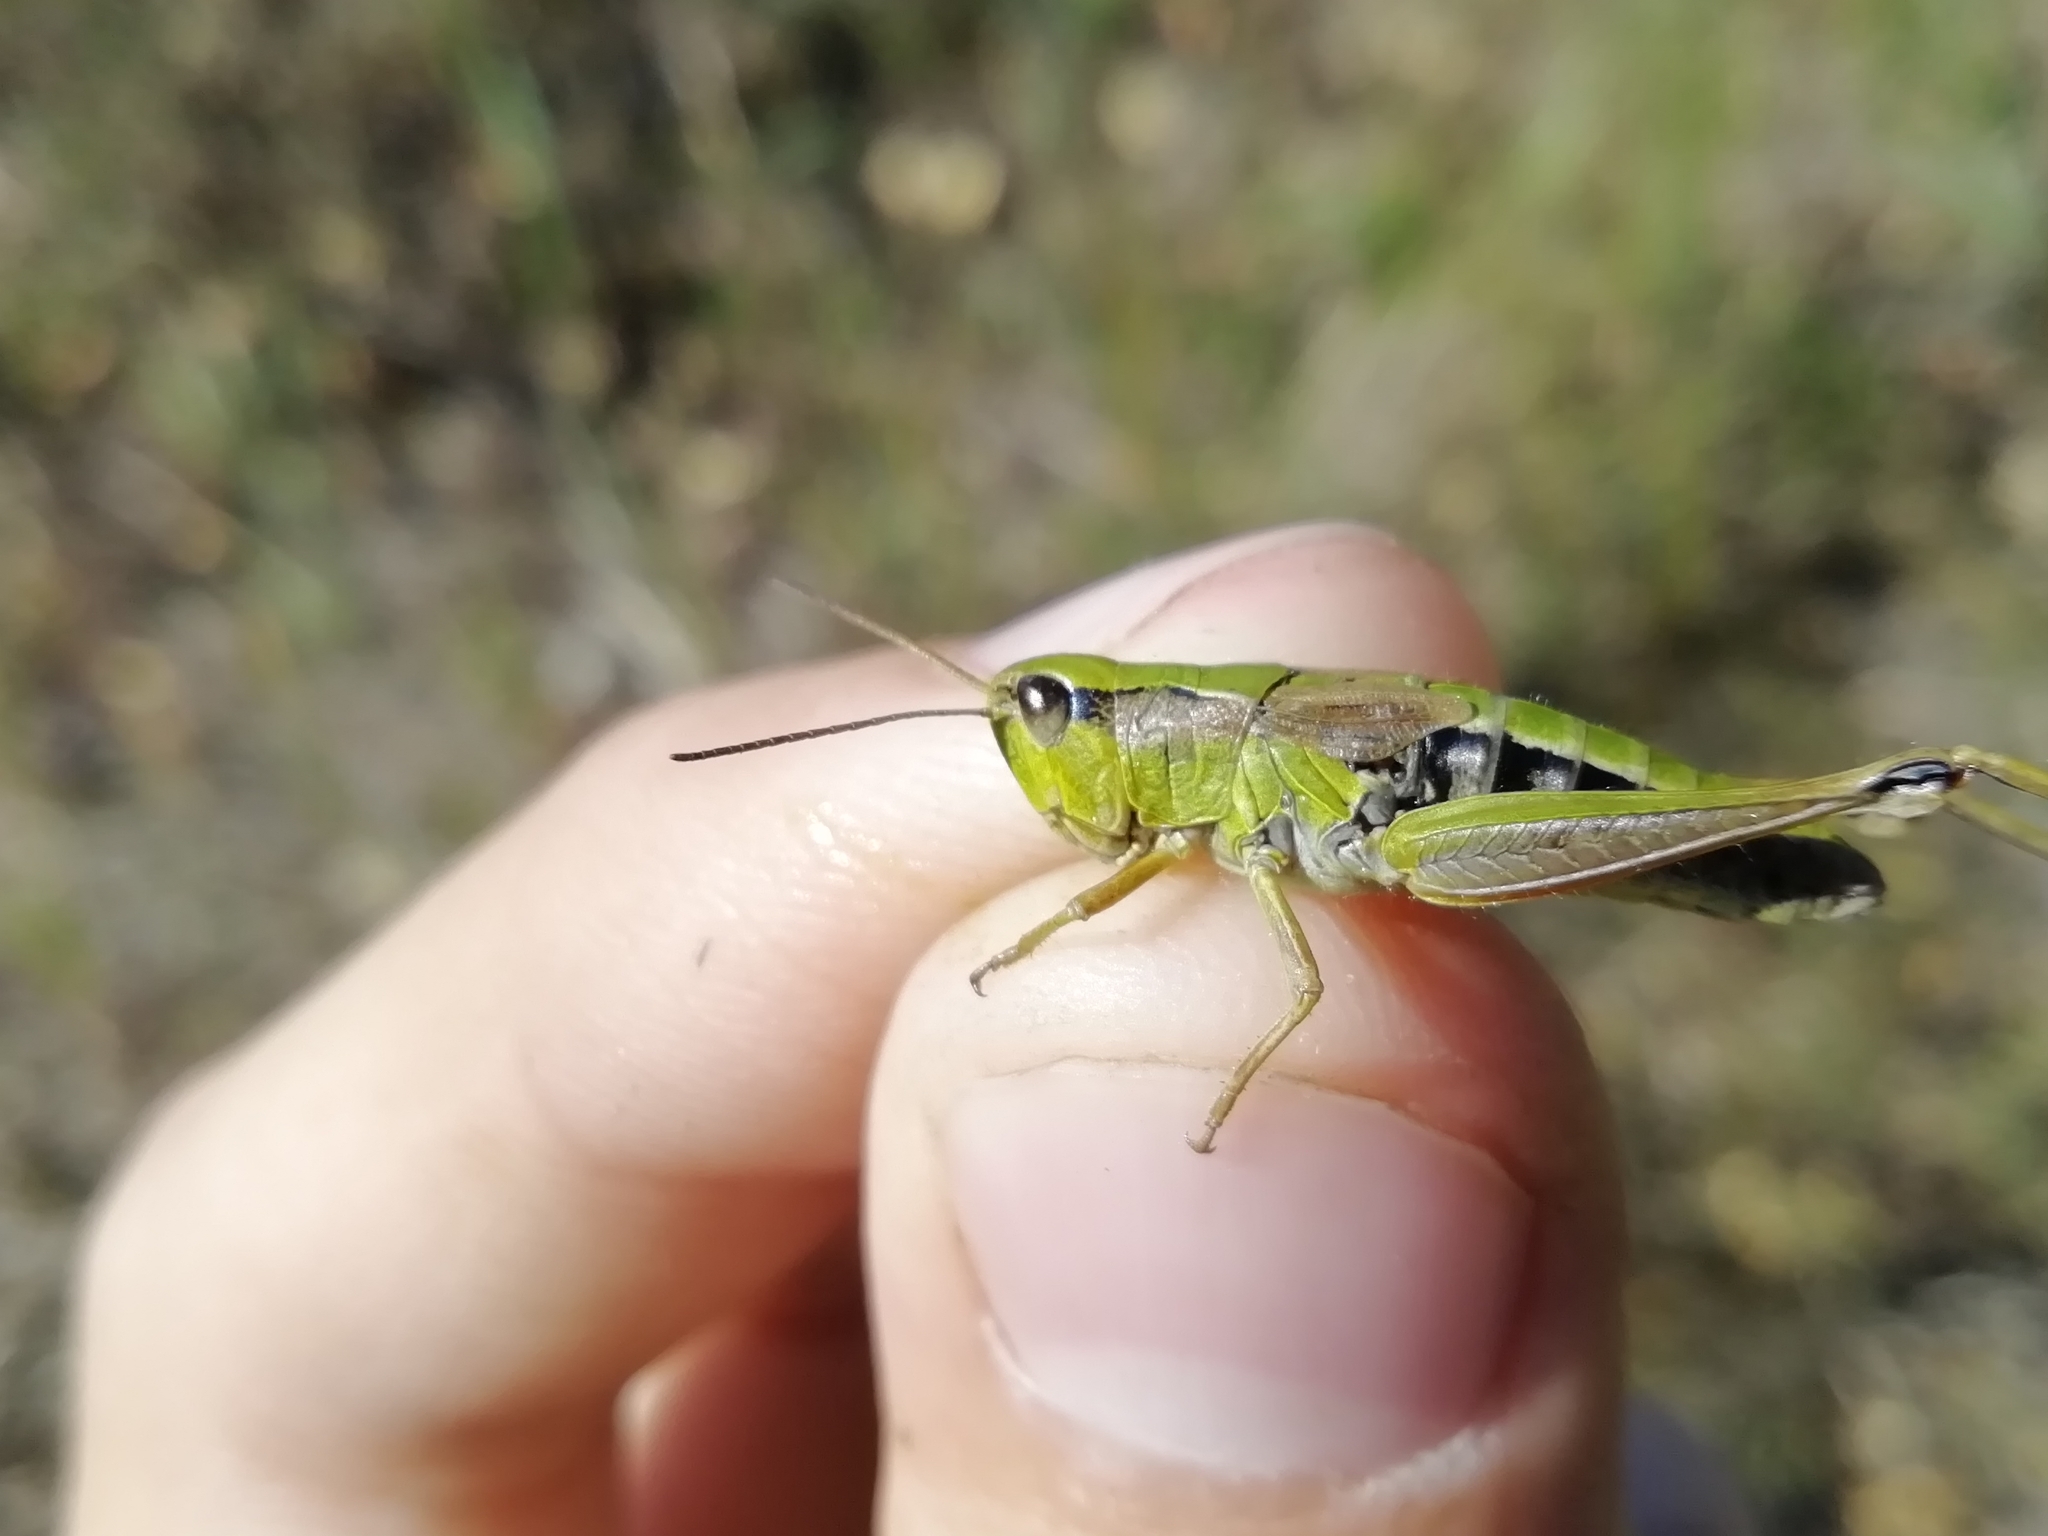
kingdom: Animalia
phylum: Arthropoda
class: Insecta
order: Orthoptera
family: Acrididae
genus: Chorthippus
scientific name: Chorthippus fallax
